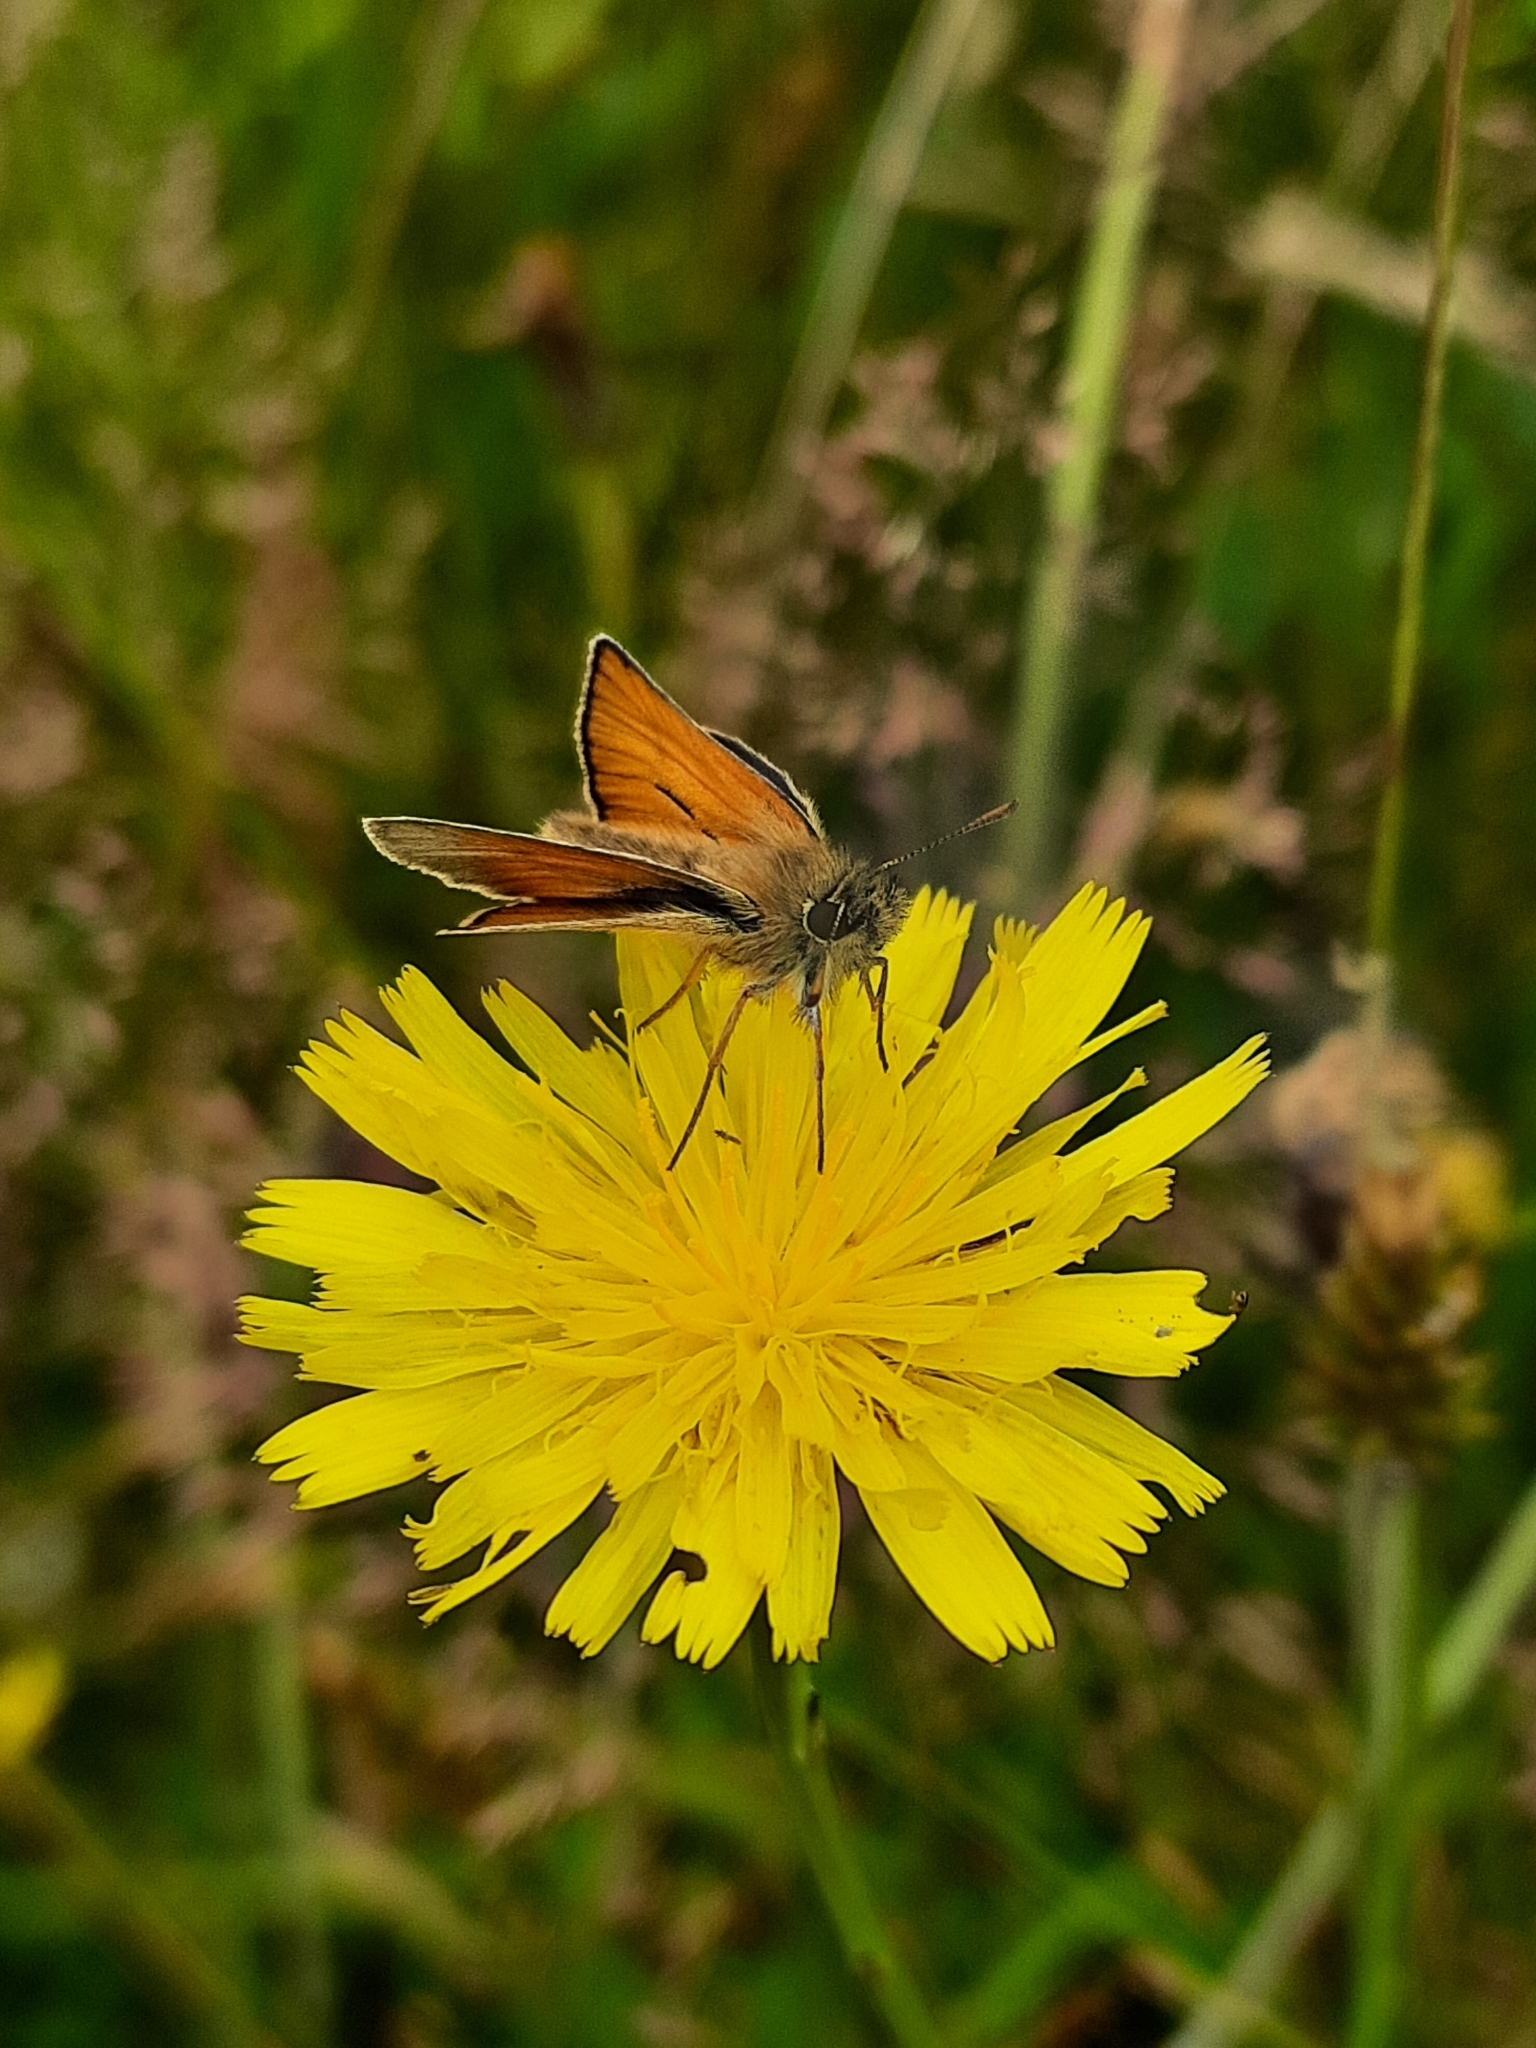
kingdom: Animalia
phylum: Arthropoda
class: Insecta
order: Lepidoptera
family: Hesperiidae
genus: Thymelicus
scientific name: Thymelicus sylvestris
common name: Small skipper
